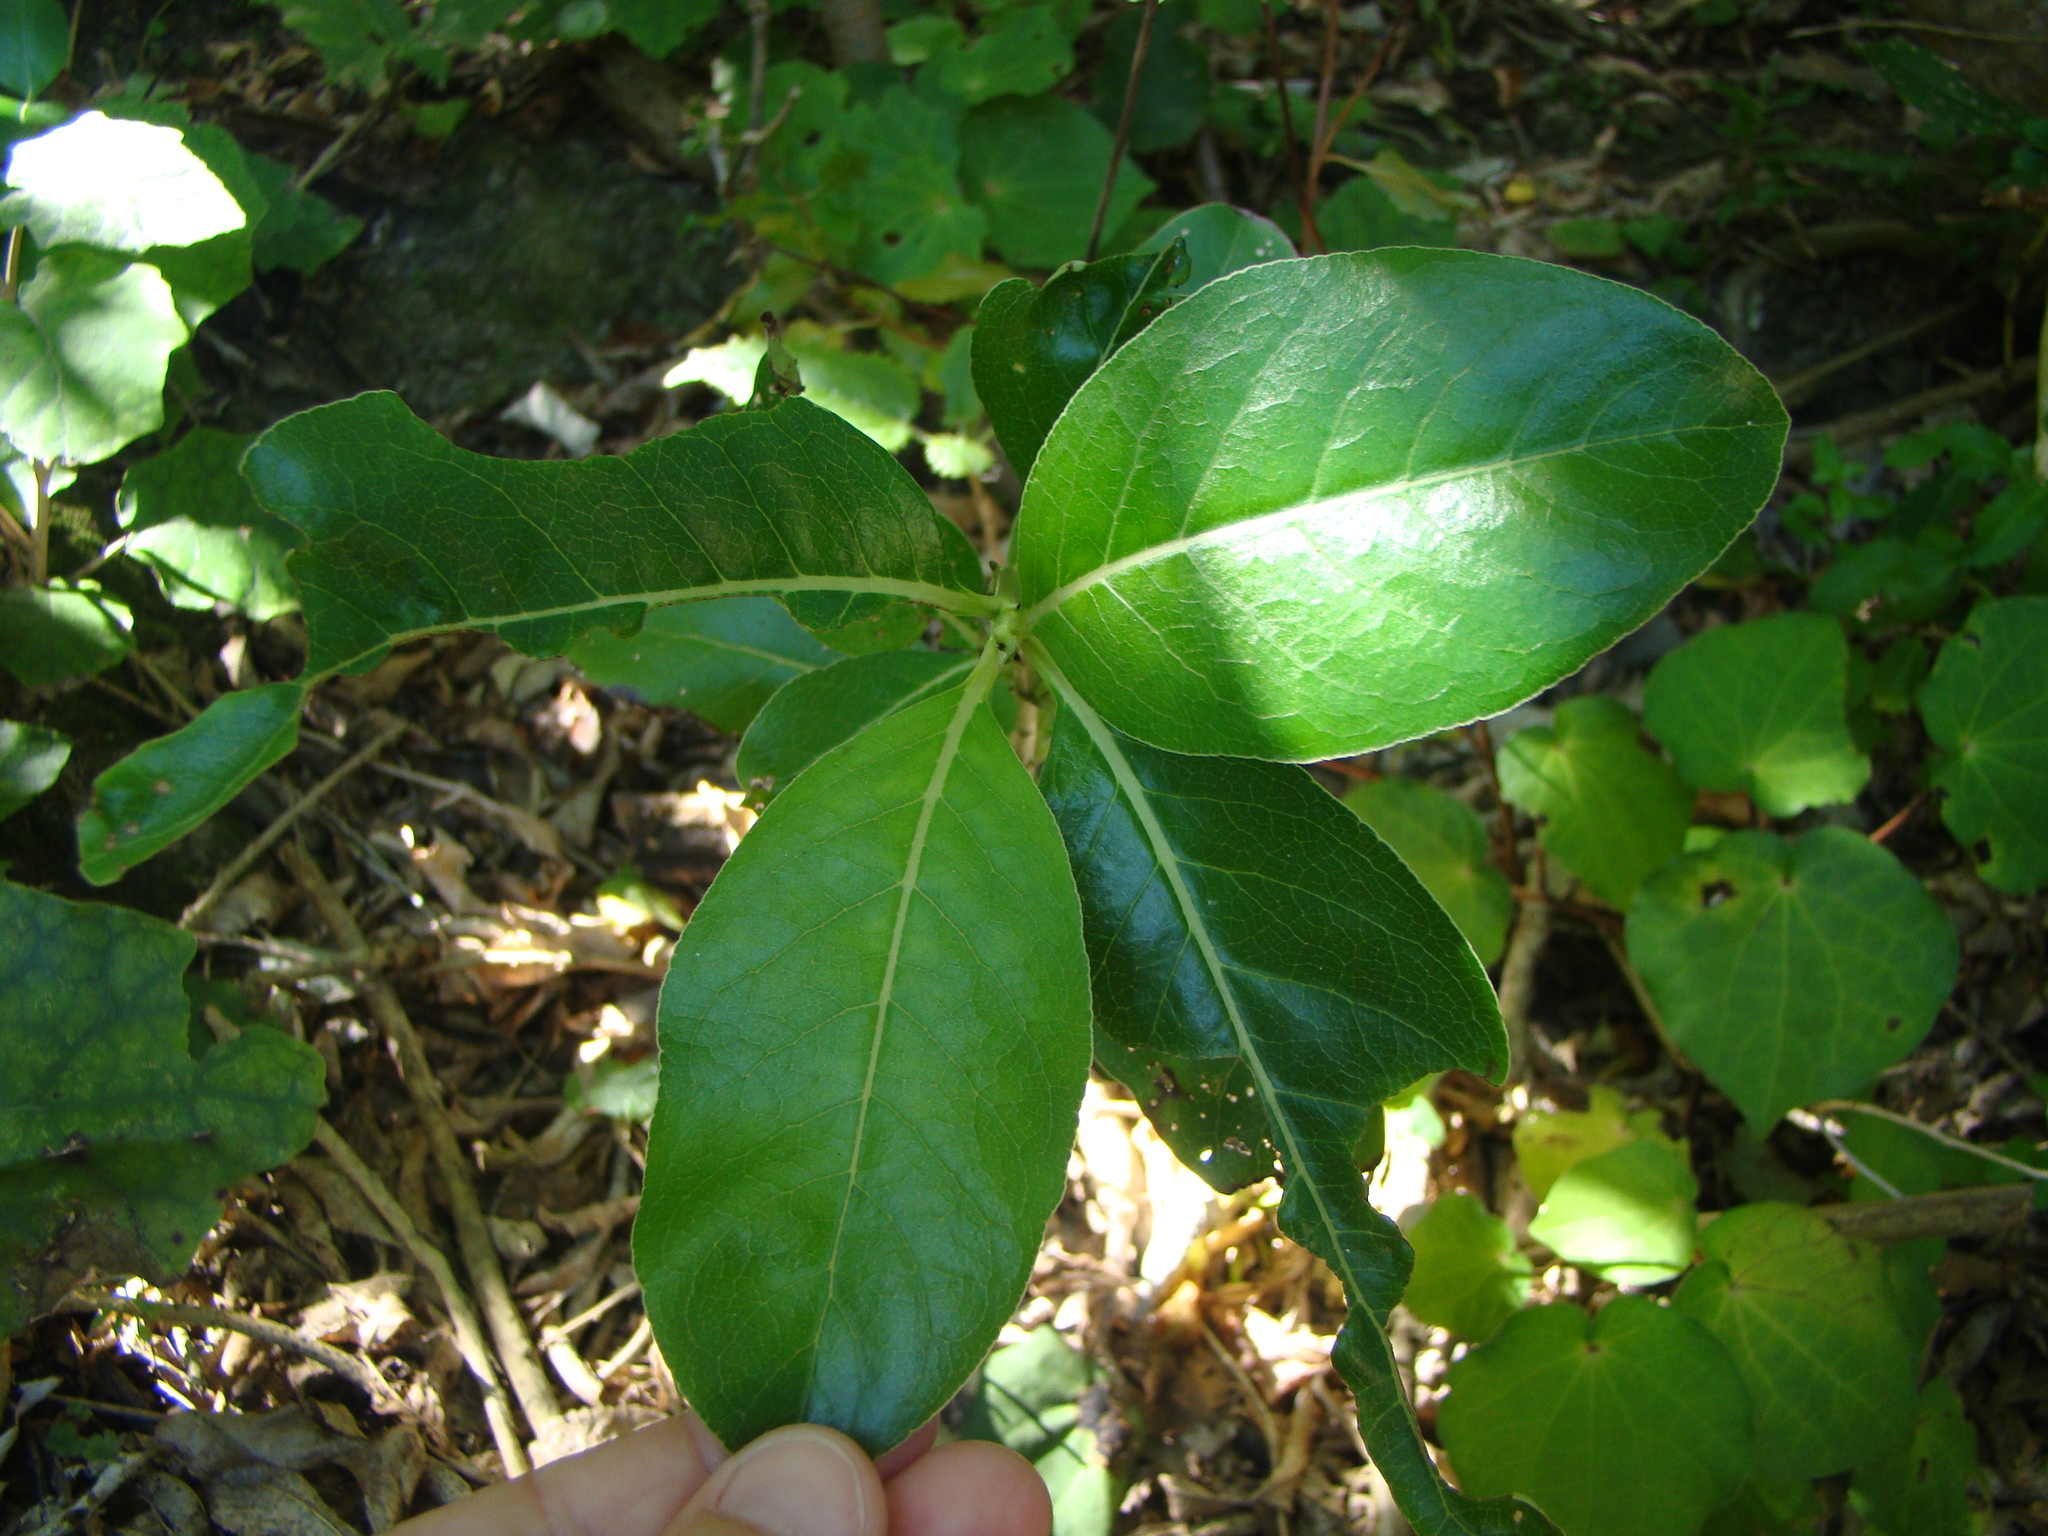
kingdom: Plantae
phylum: Tracheophyta
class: Magnoliopsida
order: Gentianales
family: Rubiaceae
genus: Coprosma
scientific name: Coprosma robusta
